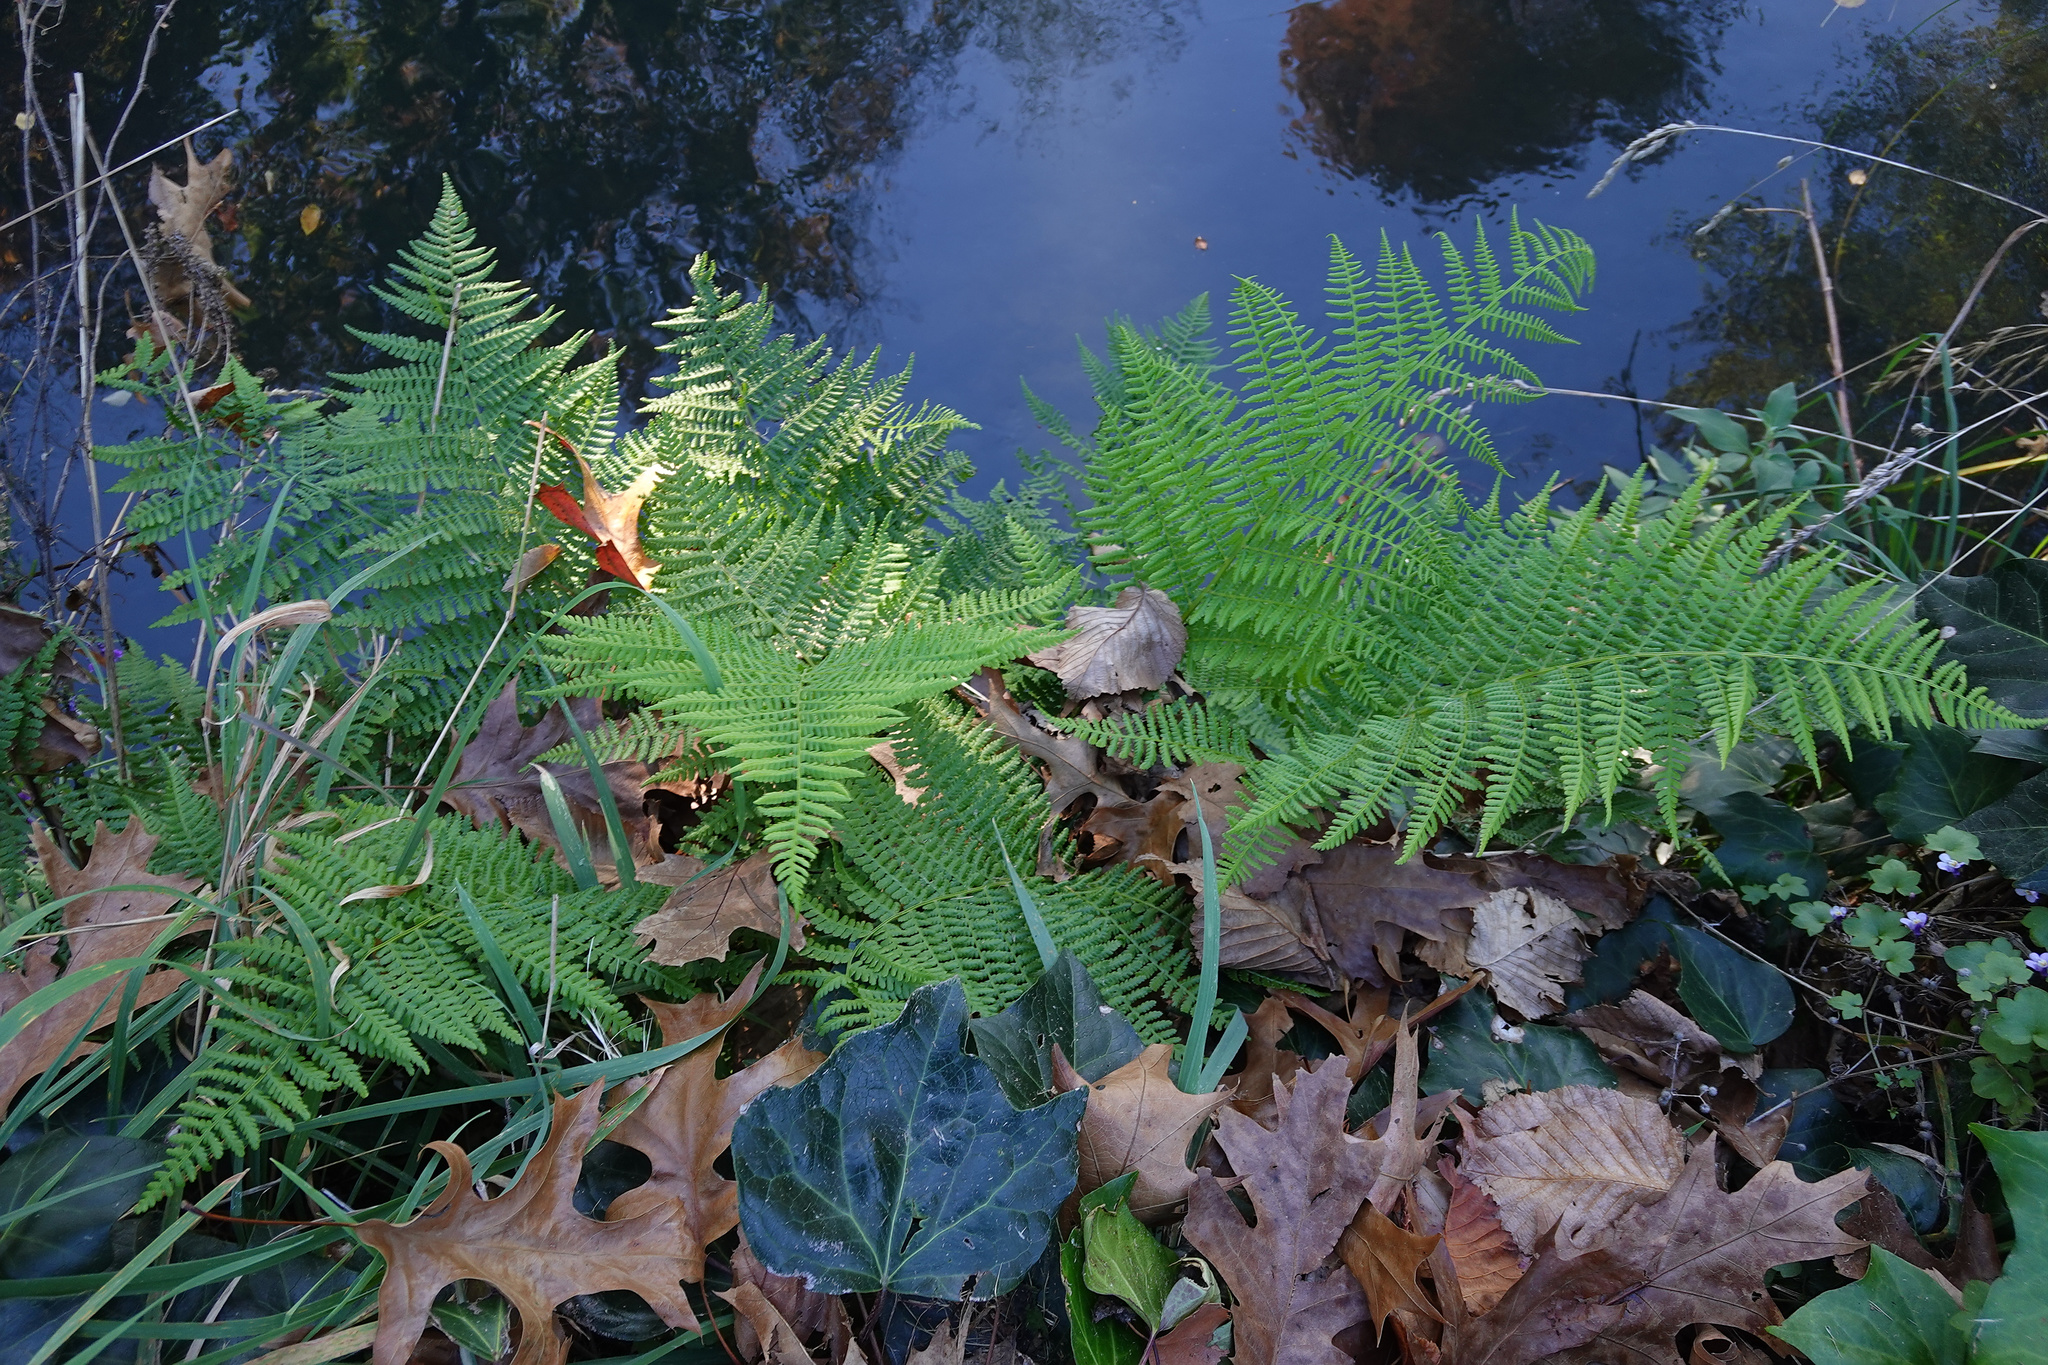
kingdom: Plantae
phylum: Tracheophyta
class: Polypodiopsida
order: Polypodiales
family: Athyriaceae
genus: Athyrium
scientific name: Athyrium filix-femina
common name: Lady fern
